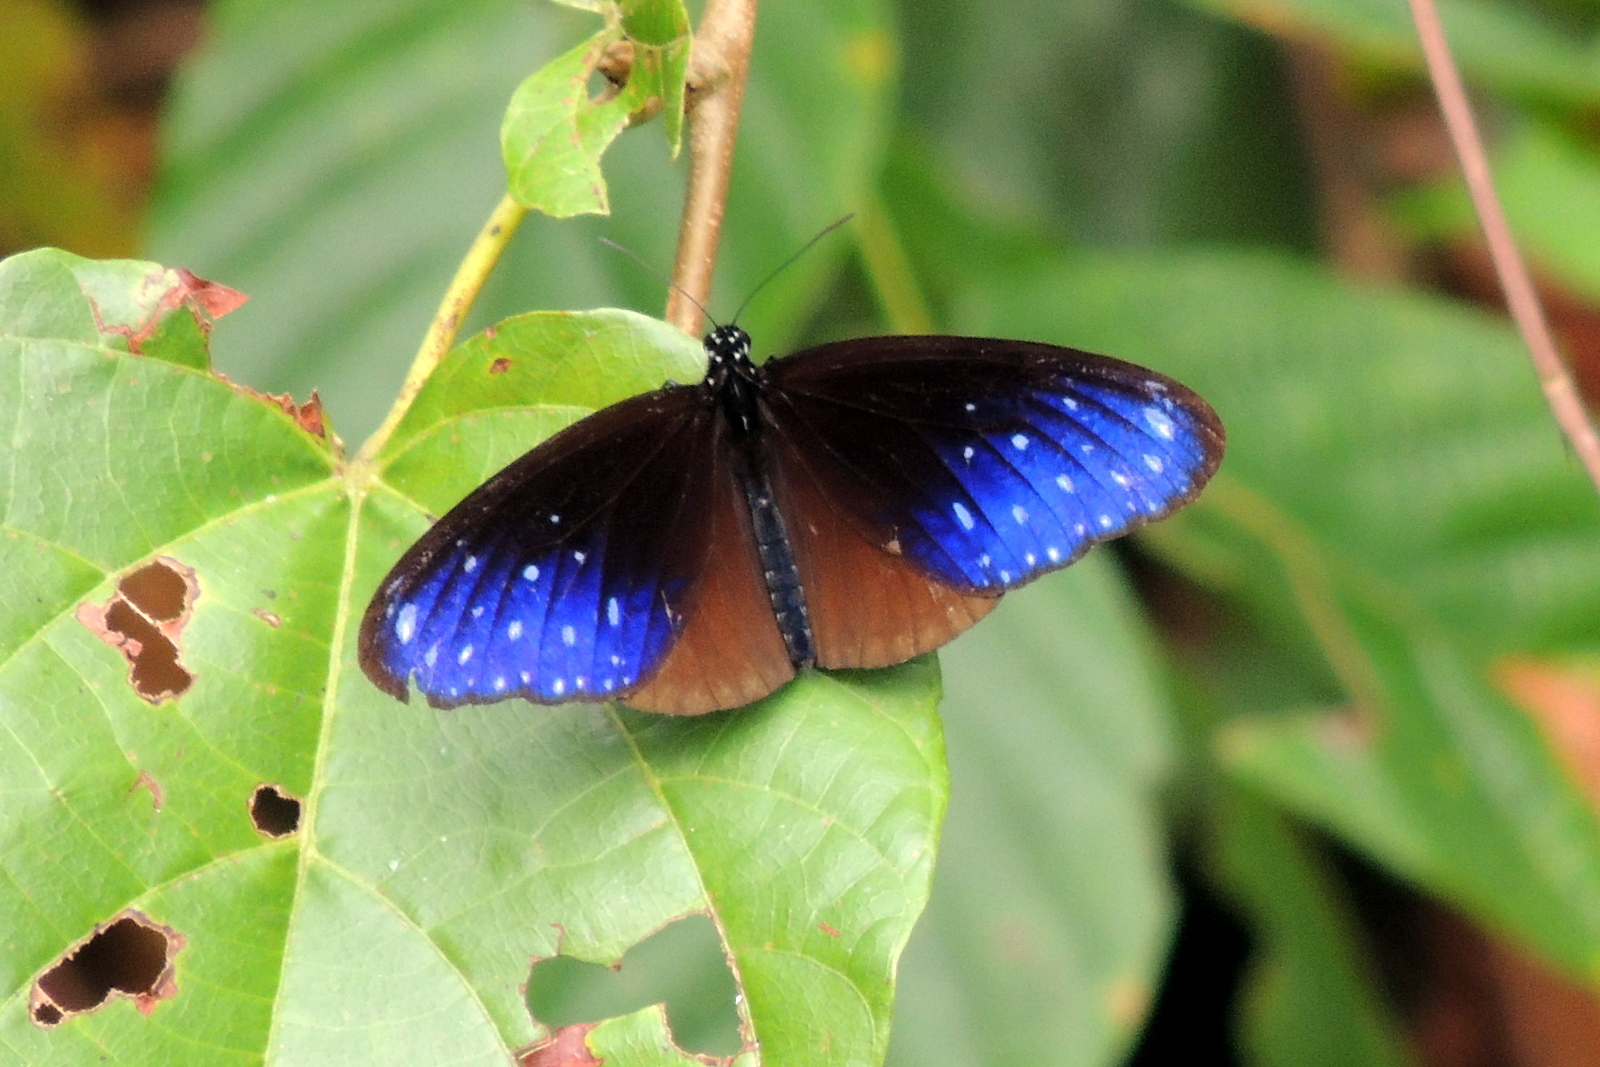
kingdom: Animalia
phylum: Arthropoda
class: Insecta
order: Lepidoptera
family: Nymphalidae
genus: Euploea
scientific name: Euploea mulciber
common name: Striped blue crow butterfly
